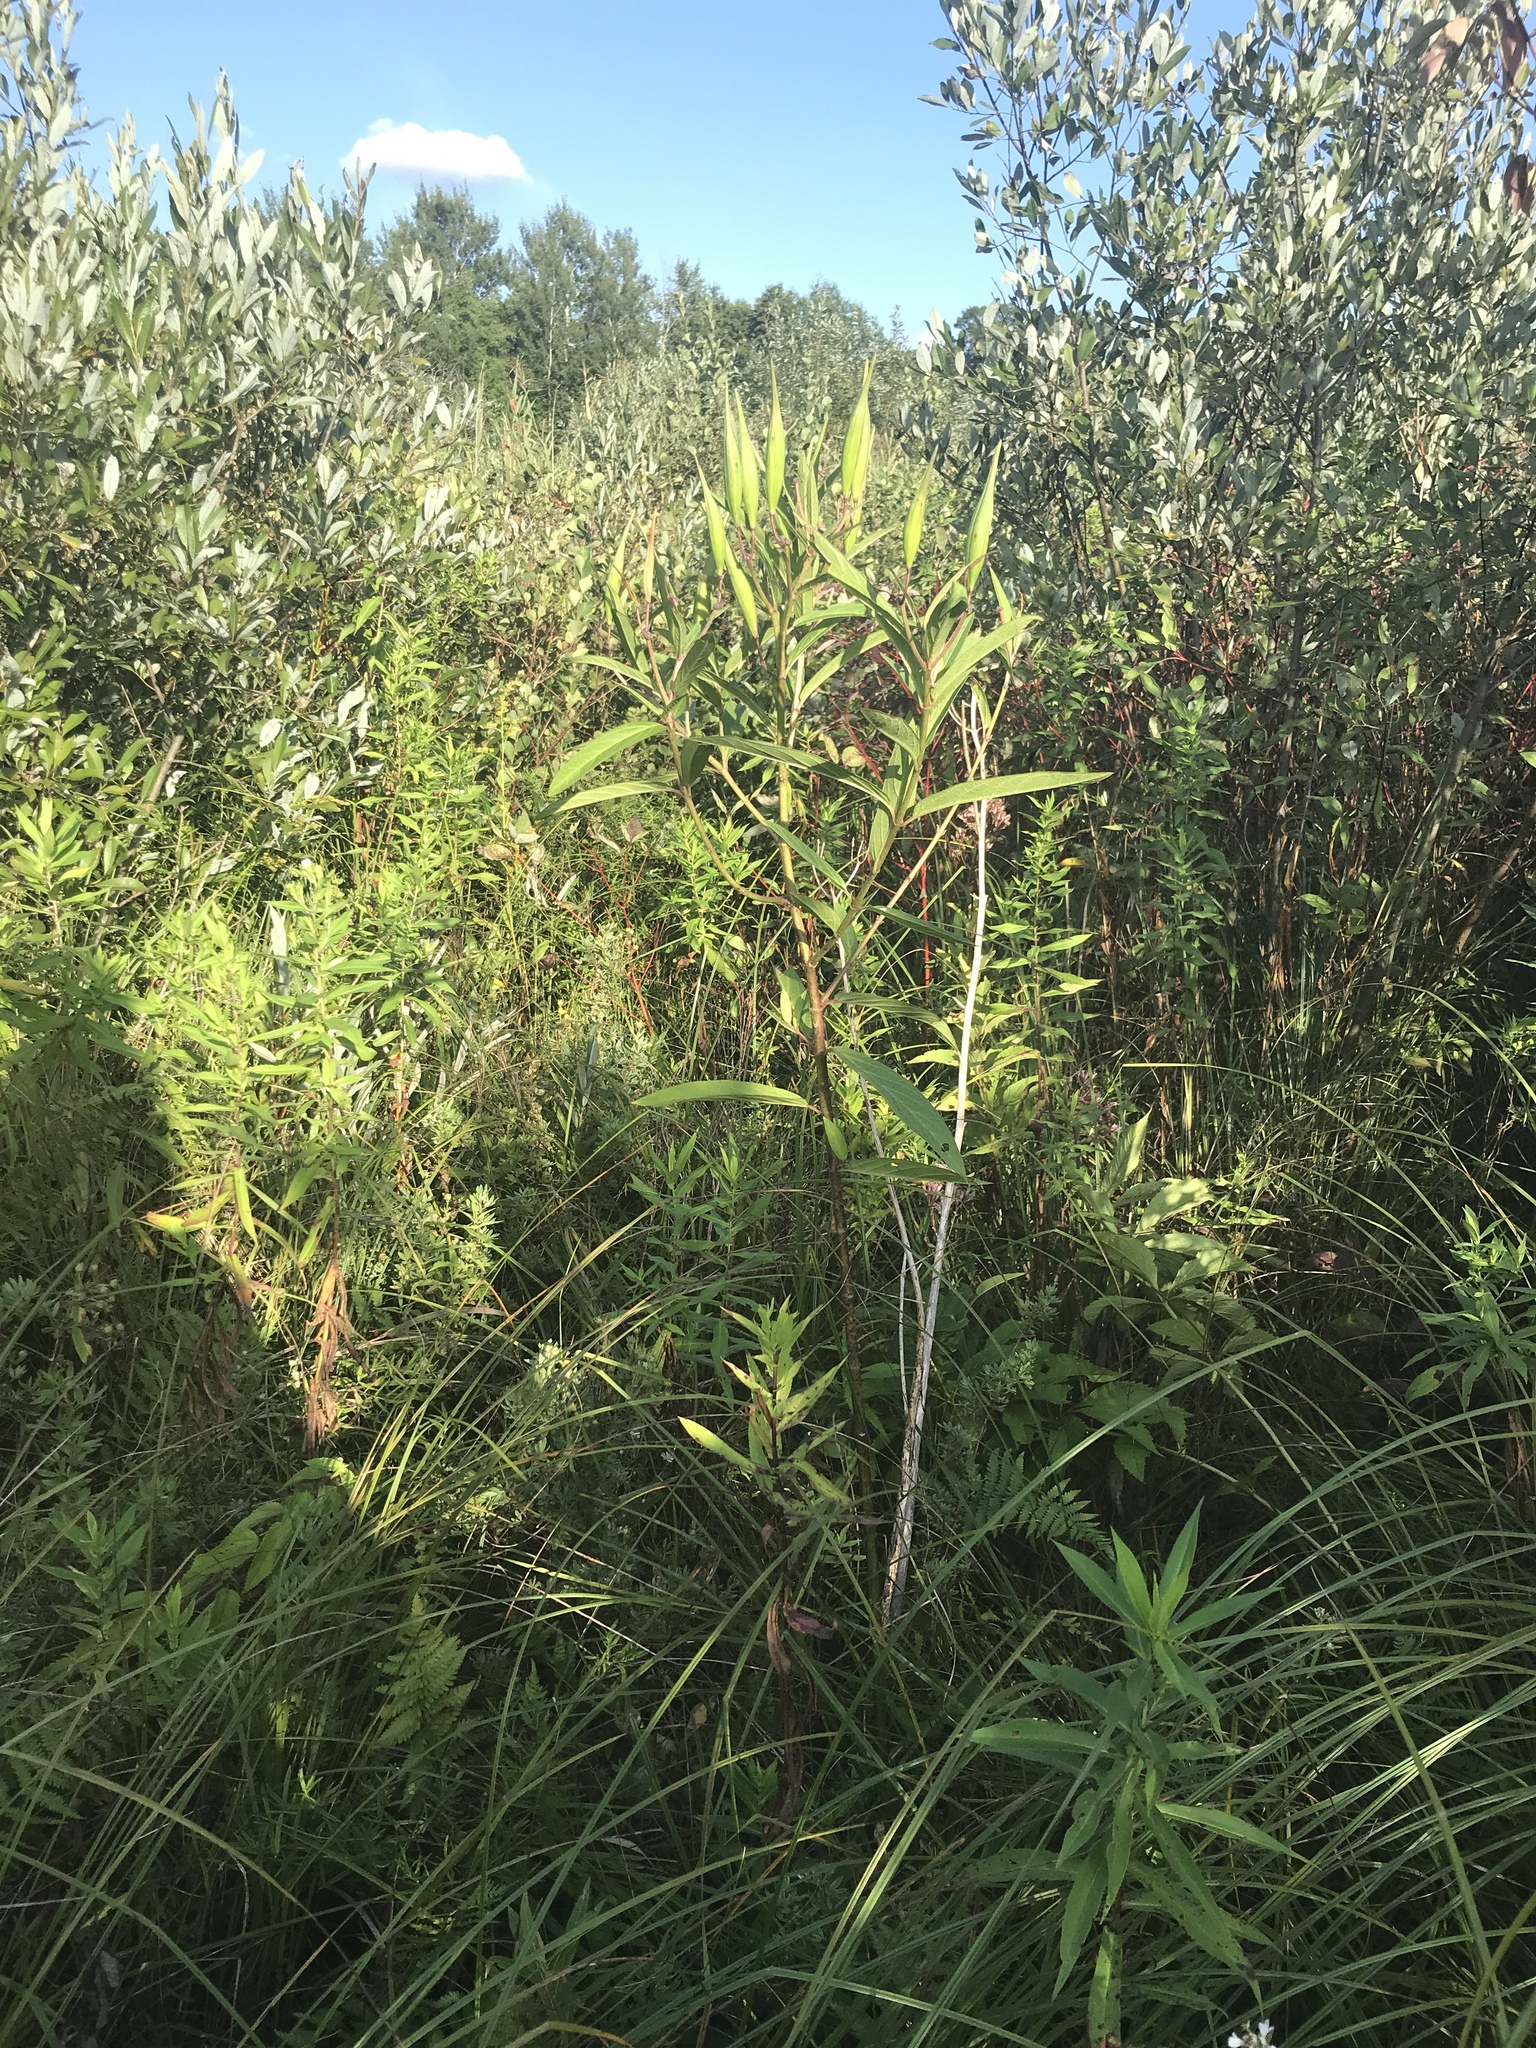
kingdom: Plantae
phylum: Tracheophyta
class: Magnoliopsida
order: Gentianales
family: Apocynaceae
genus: Asclepias
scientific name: Asclepias incarnata
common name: Swamp milkweed
